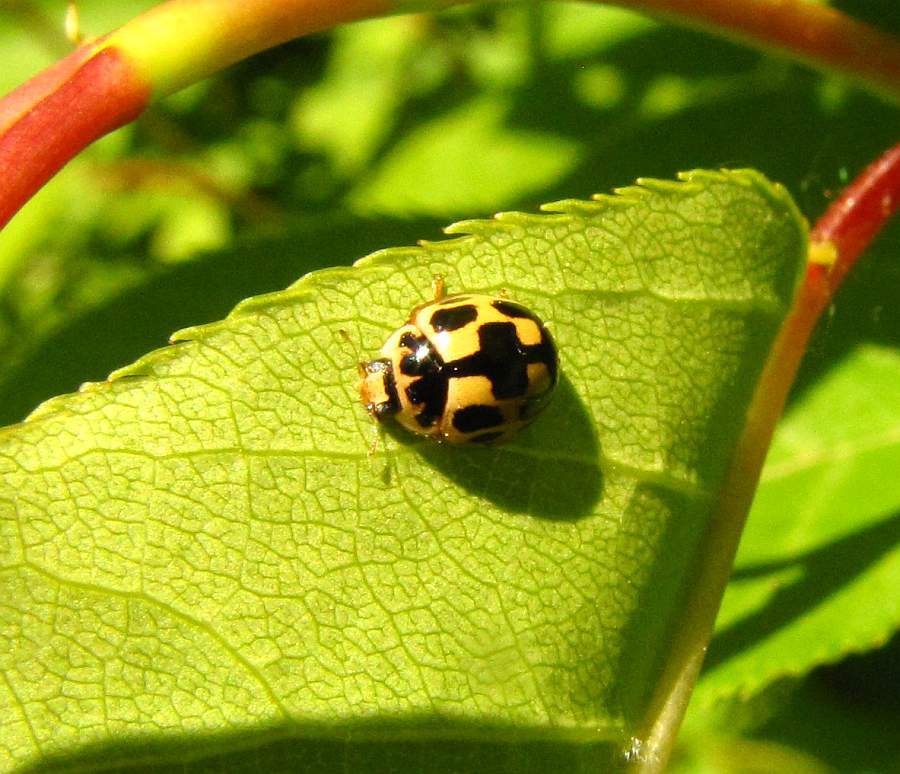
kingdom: Animalia
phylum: Arthropoda
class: Insecta
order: Coleoptera
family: Coccinellidae
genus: Propylaea
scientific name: Propylaea quatuordecimpunctata
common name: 14-spotted ladybird beetle
